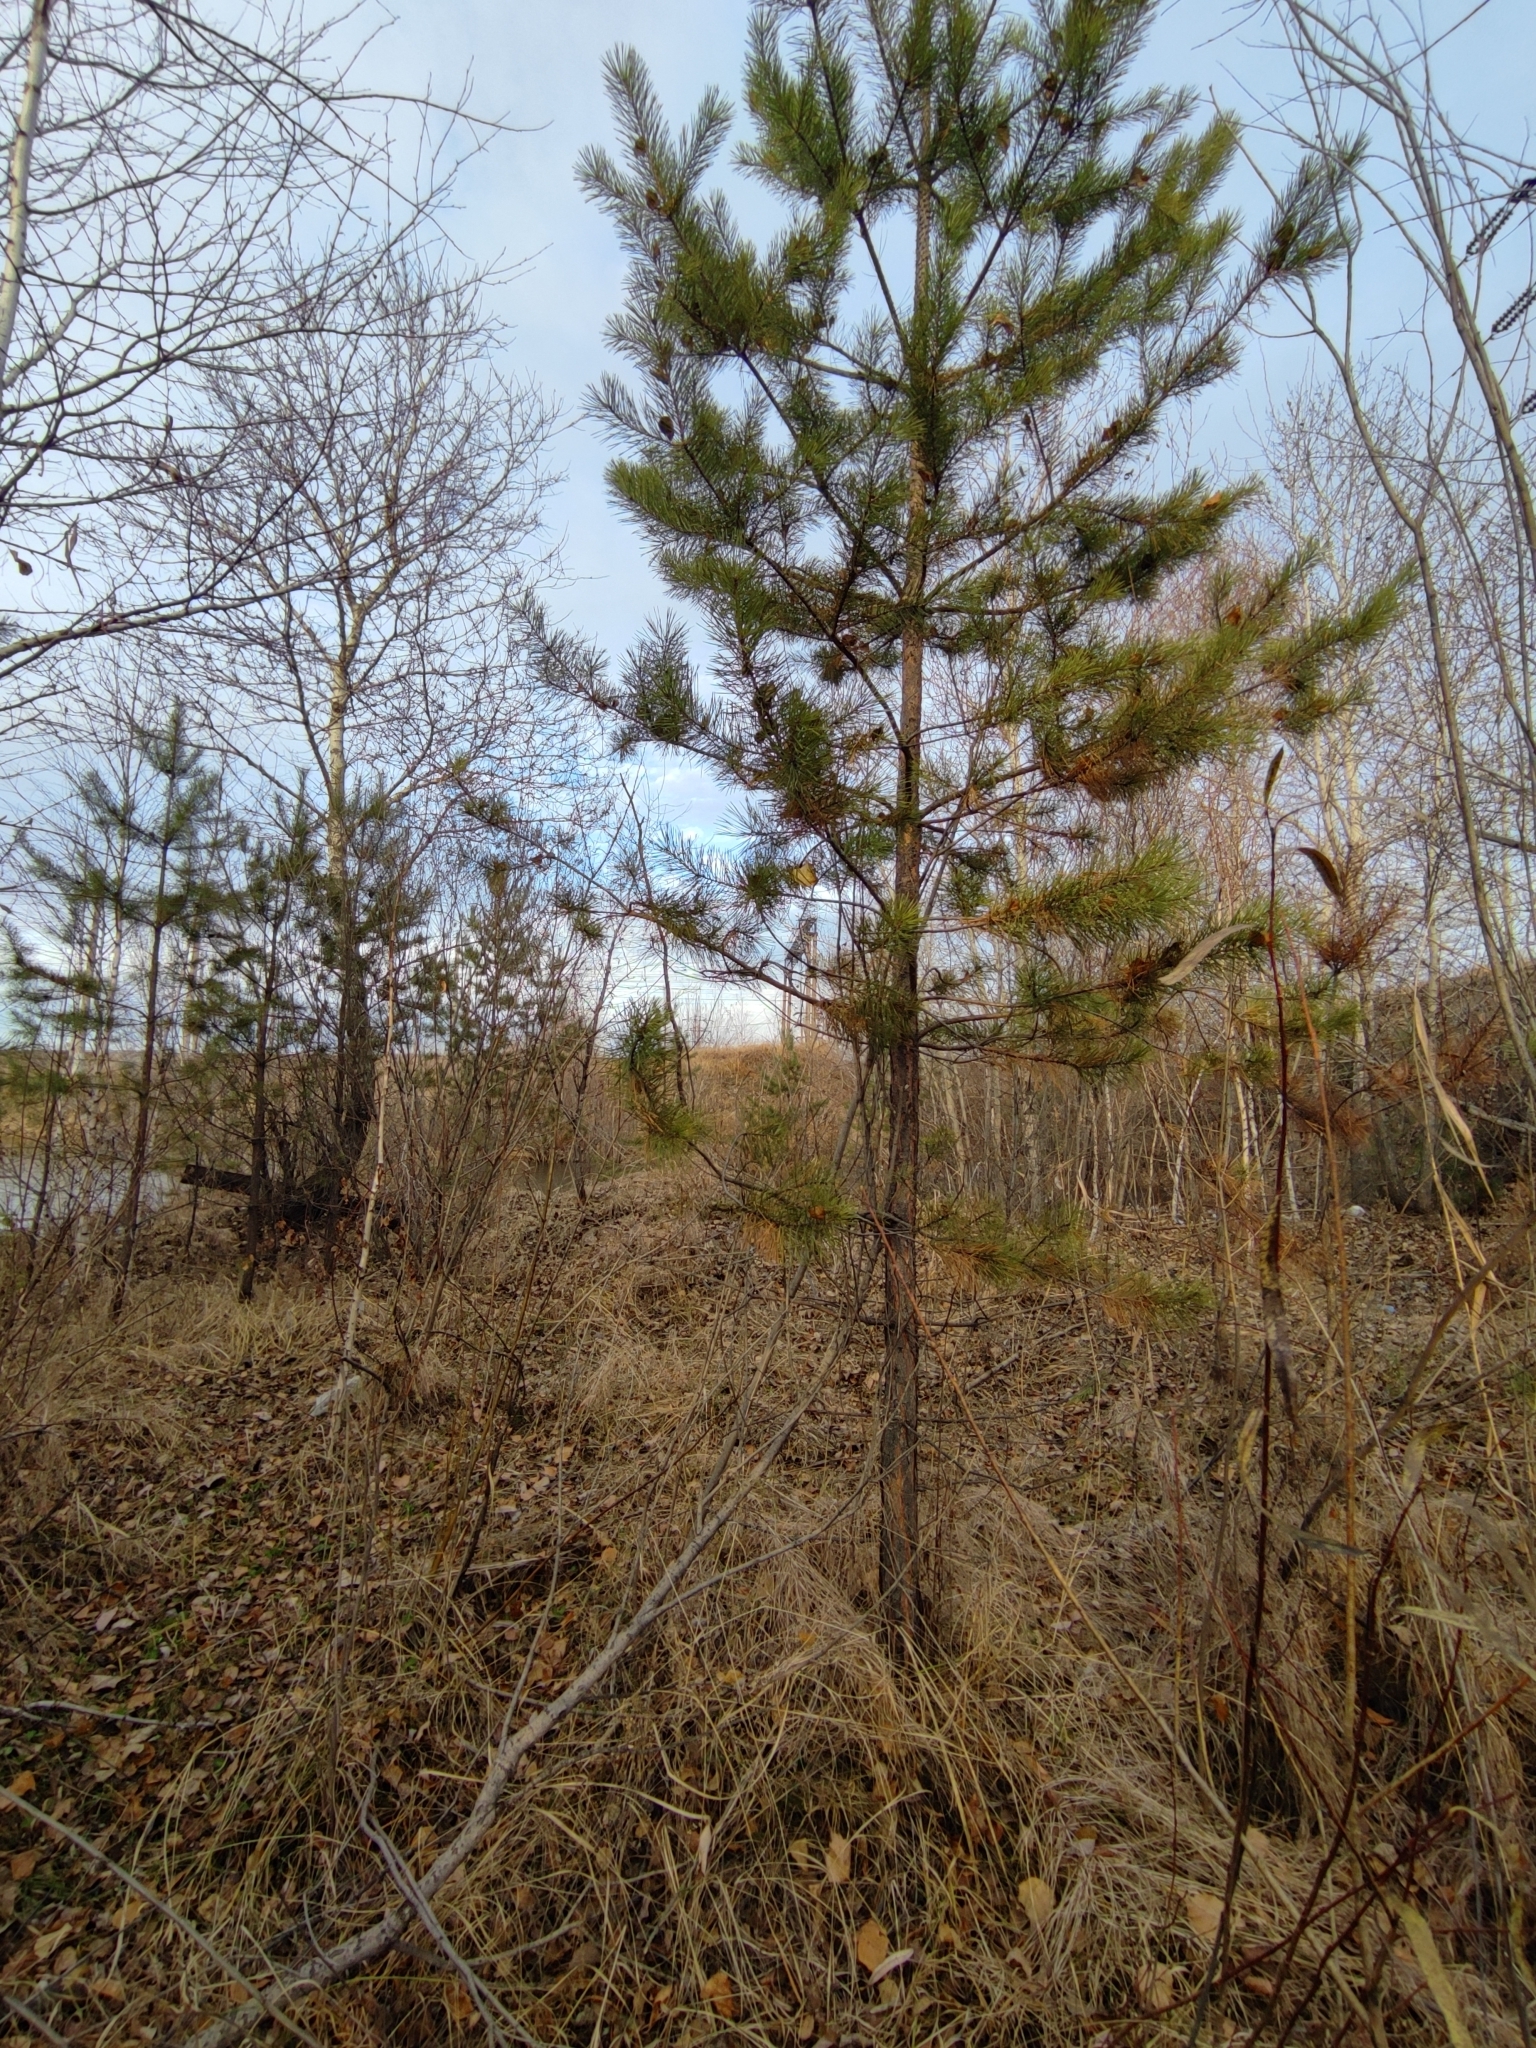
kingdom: Plantae
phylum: Tracheophyta
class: Pinopsida
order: Pinales
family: Pinaceae
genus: Pinus
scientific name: Pinus sylvestris
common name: Scots pine
